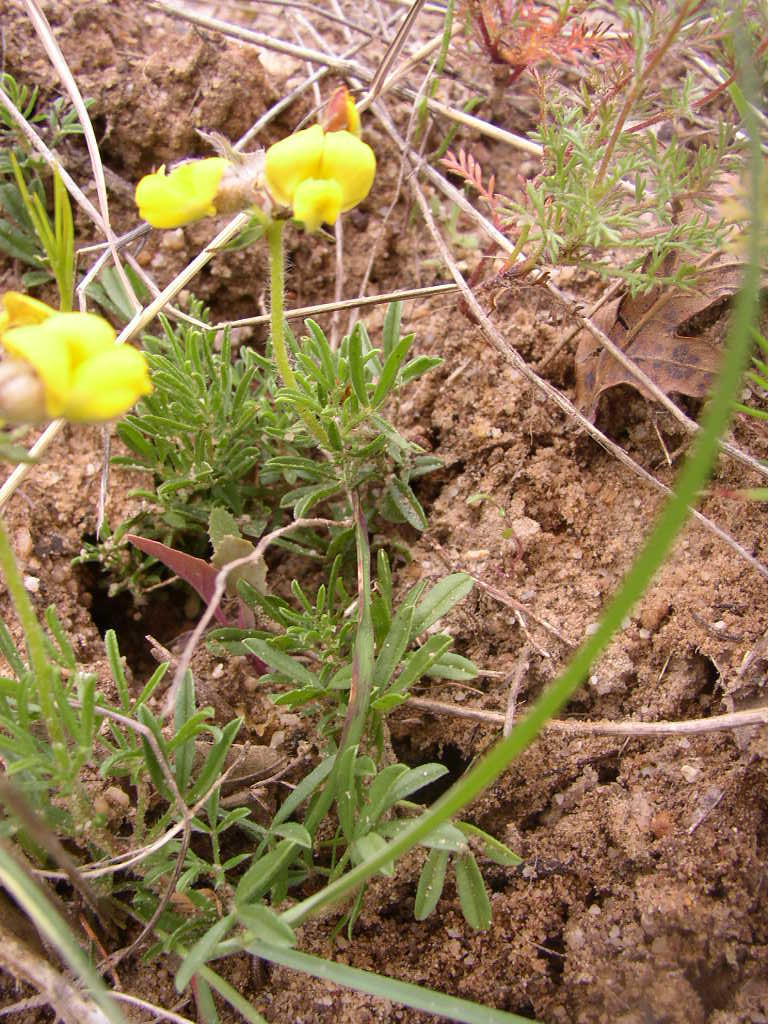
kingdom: Plantae
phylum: Tracheophyta
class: Magnoliopsida
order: Fabales
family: Fabaceae
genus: Lotononis
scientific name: Lotononis prostrata
